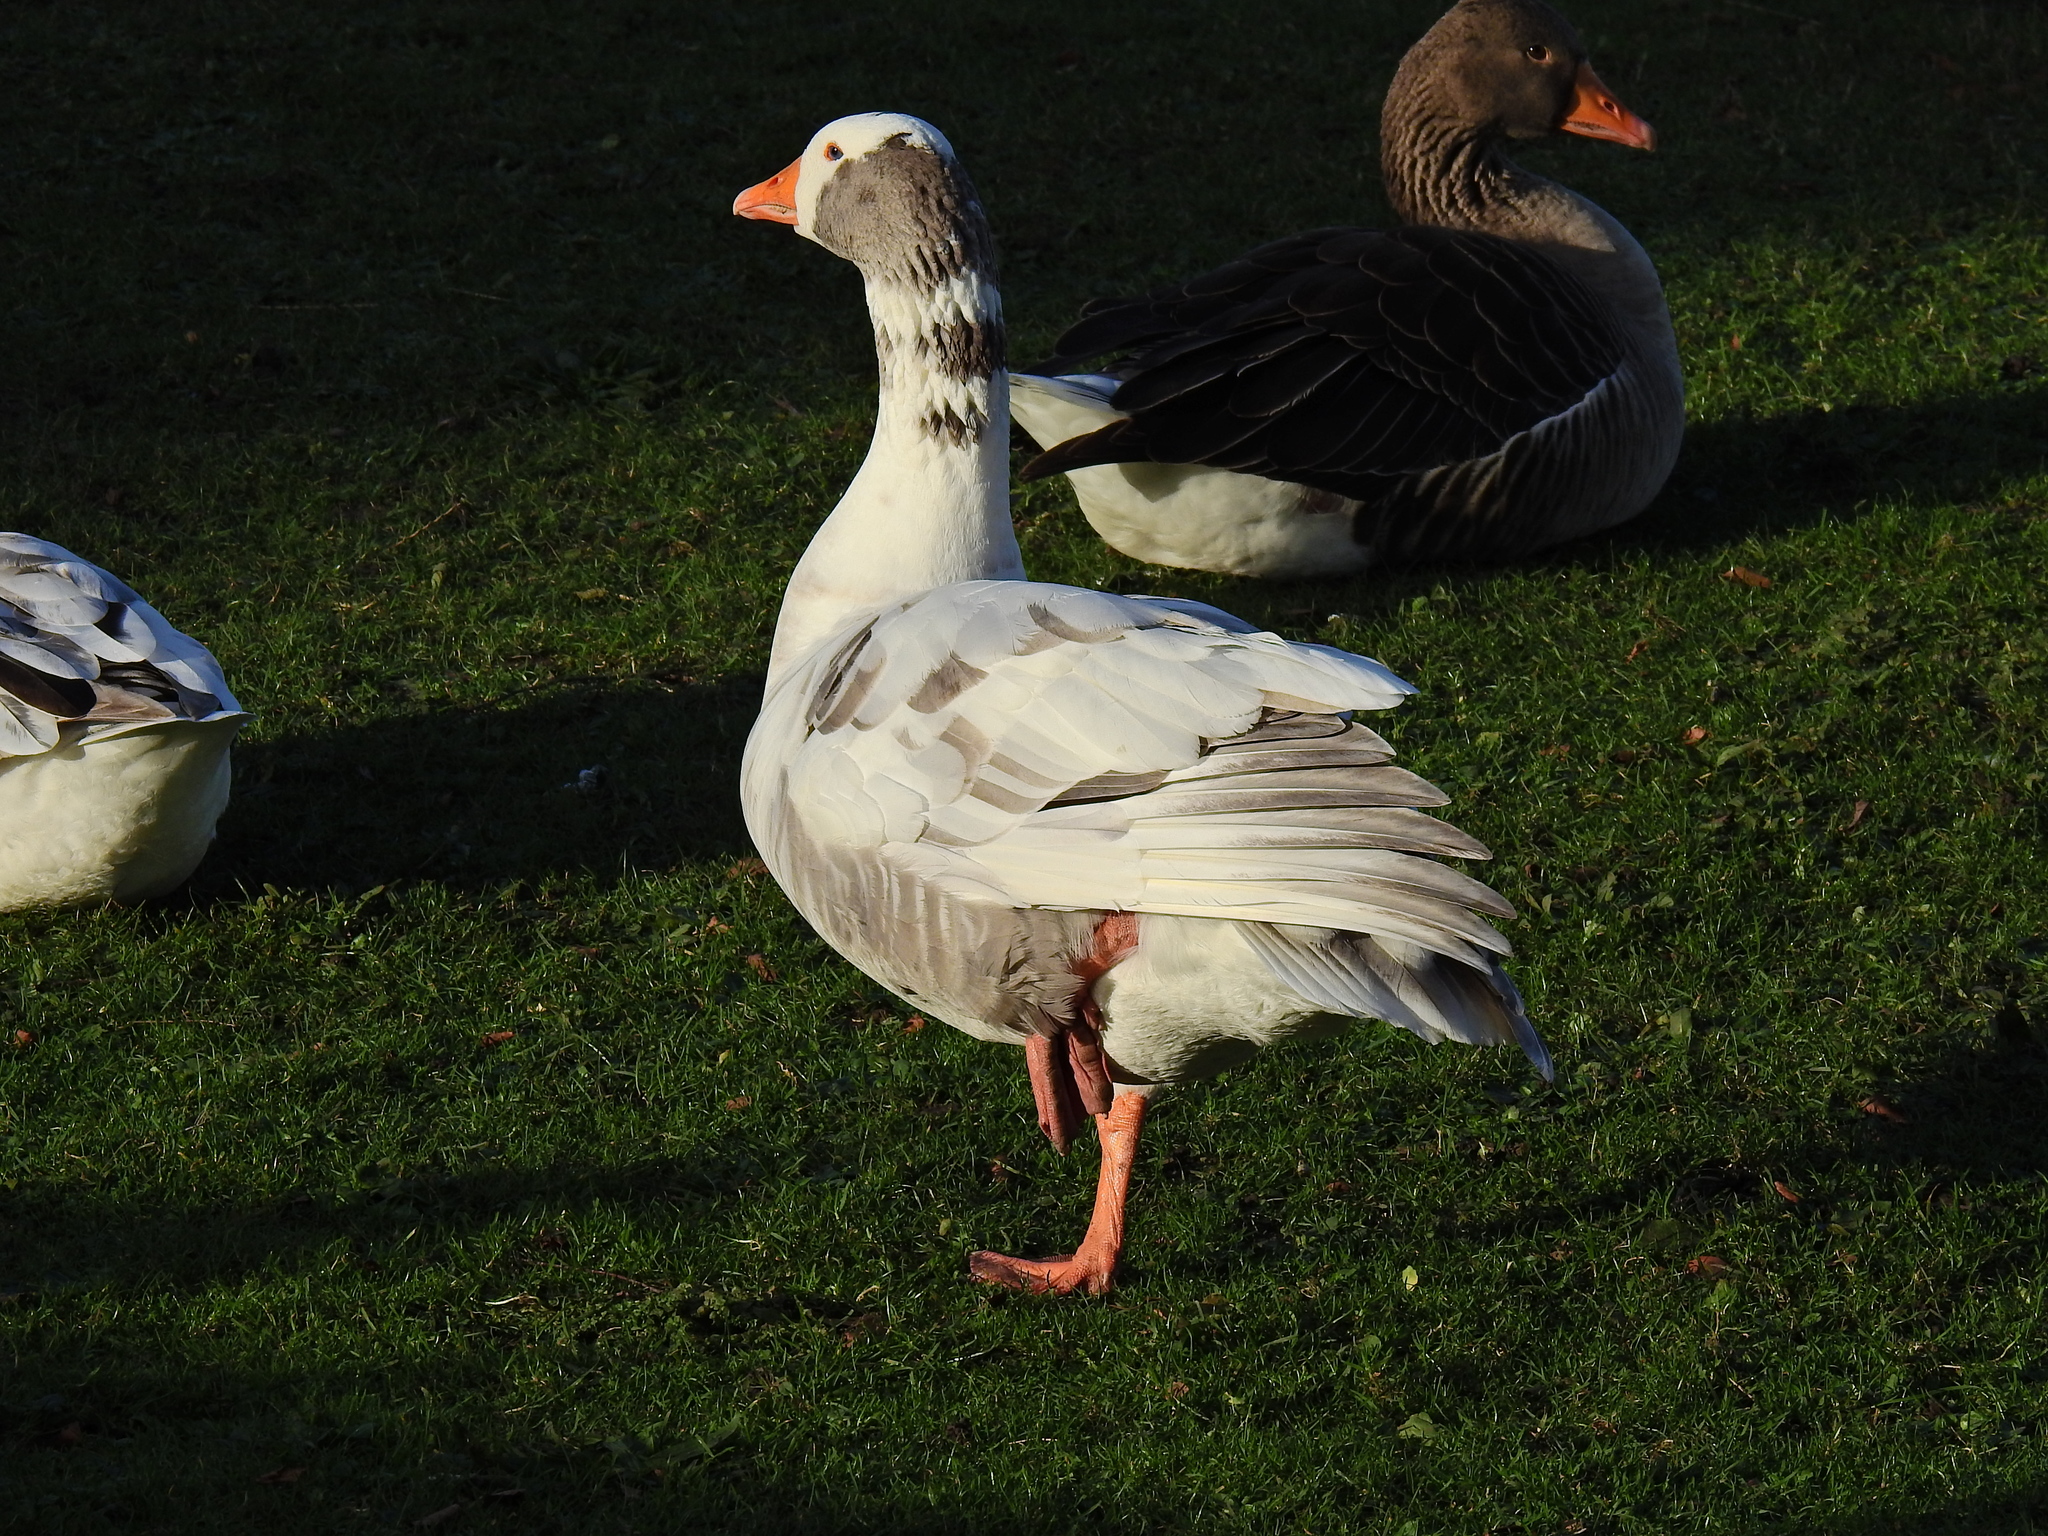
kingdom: Animalia
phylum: Chordata
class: Aves
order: Anseriformes
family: Anatidae
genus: Anser
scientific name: Anser anser
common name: Greylag goose
